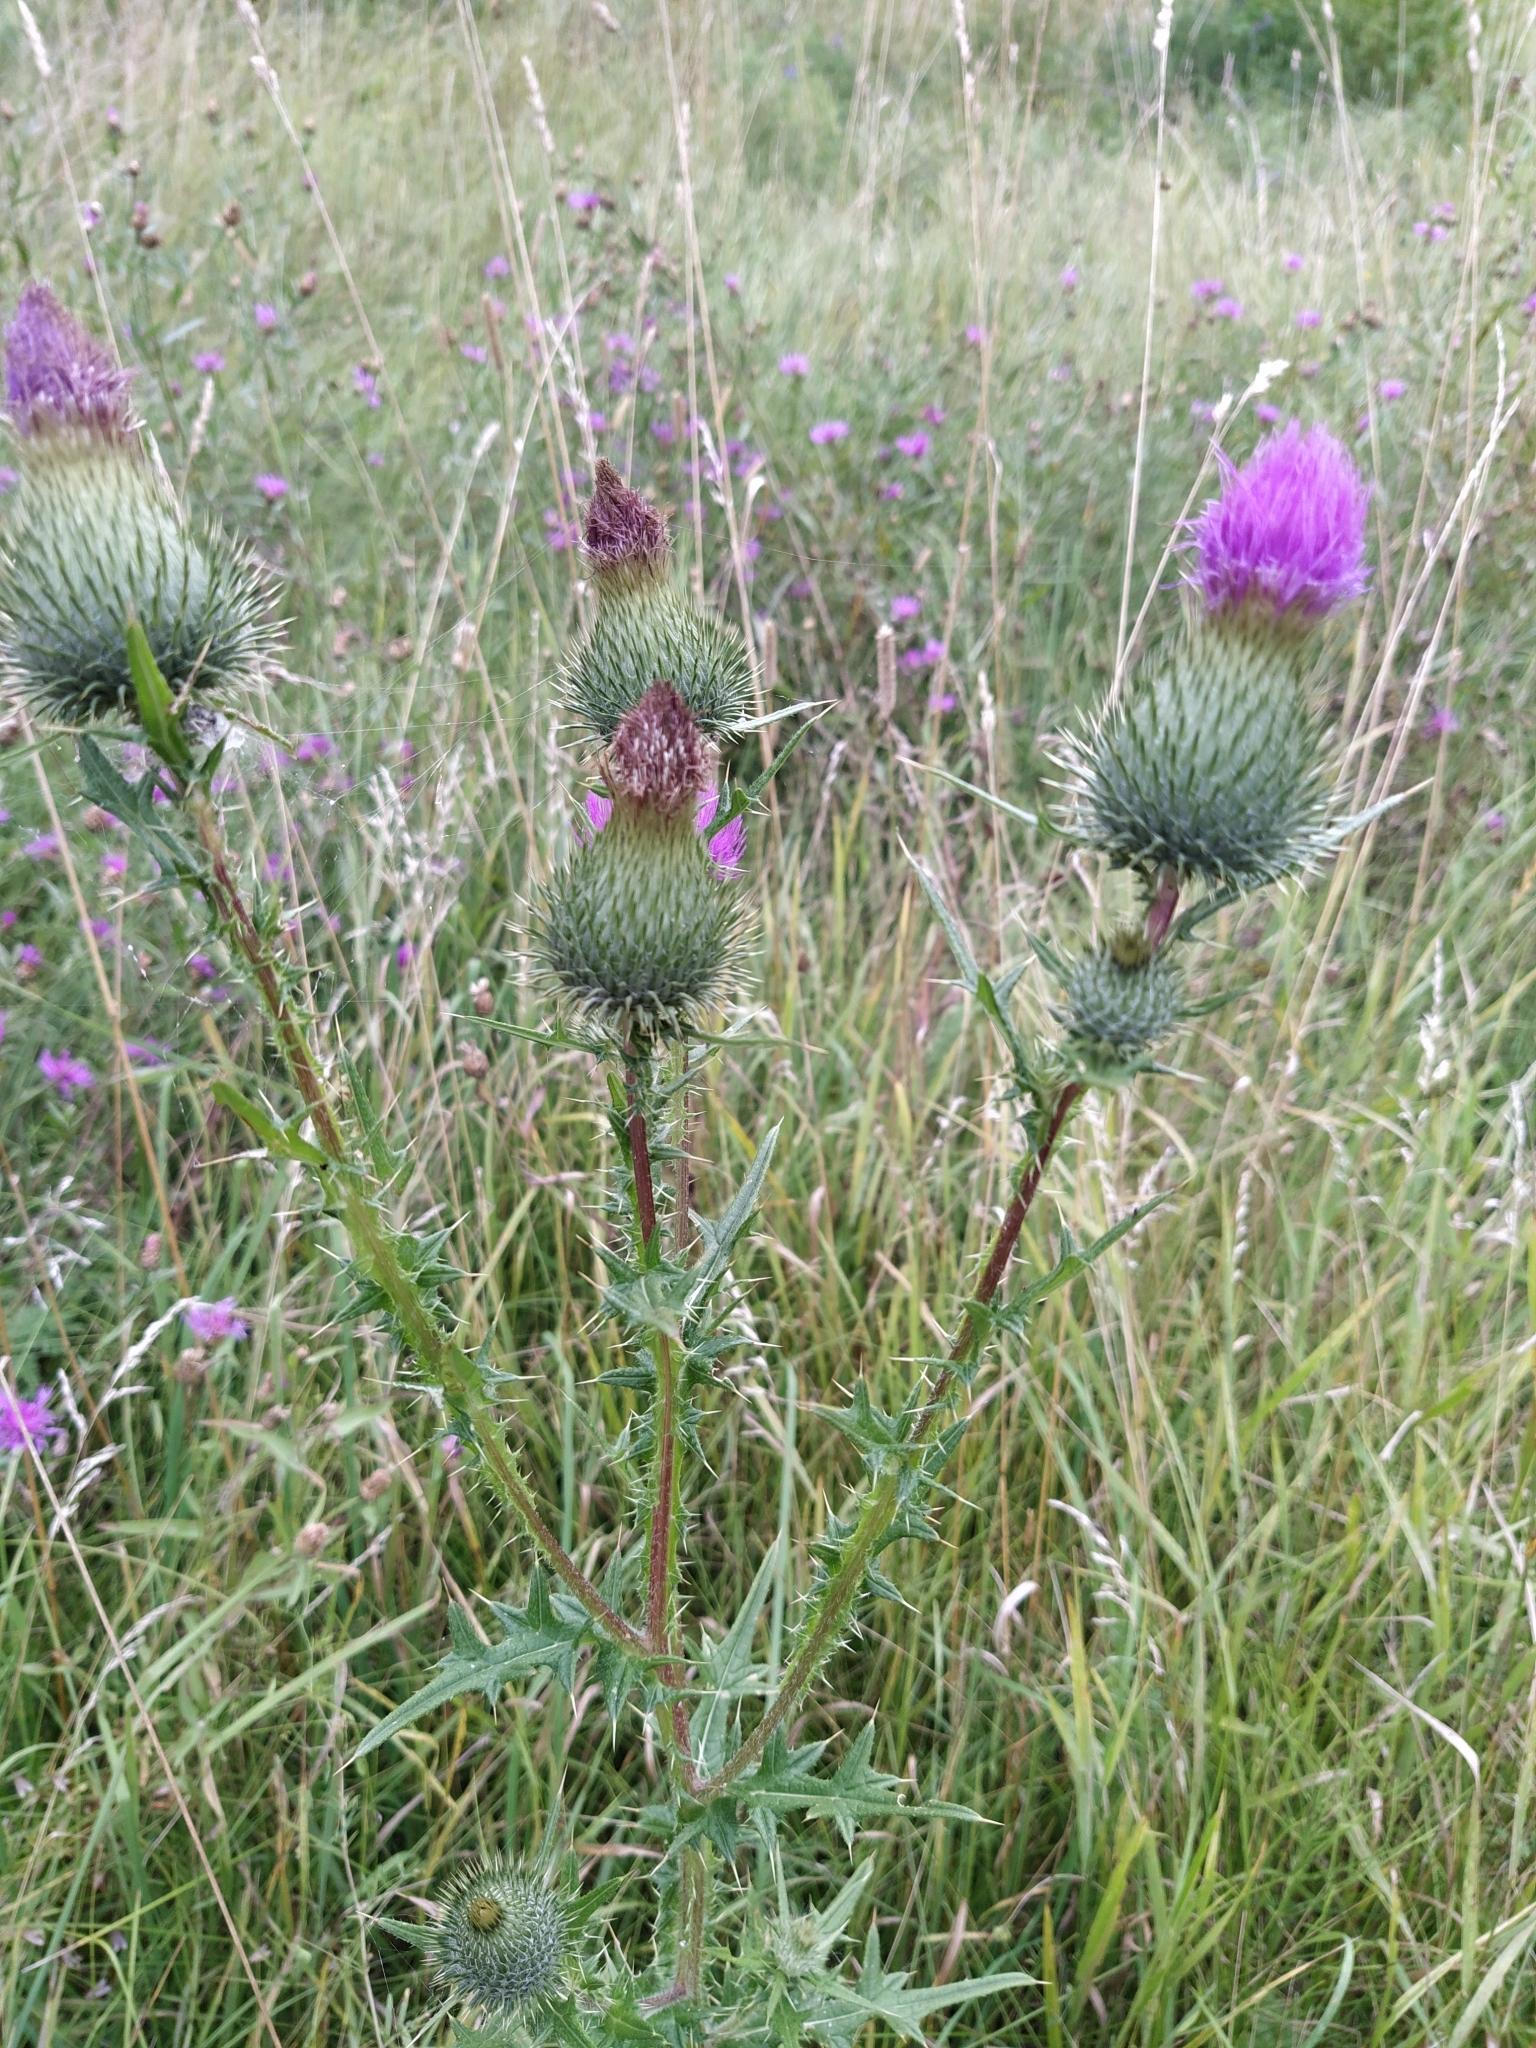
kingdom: Plantae
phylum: Tracheophyta
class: Magnoliopsida
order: Asterales
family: Asteraceae
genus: Cirsium
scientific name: Cirsium vulgare
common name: Bull thistle
